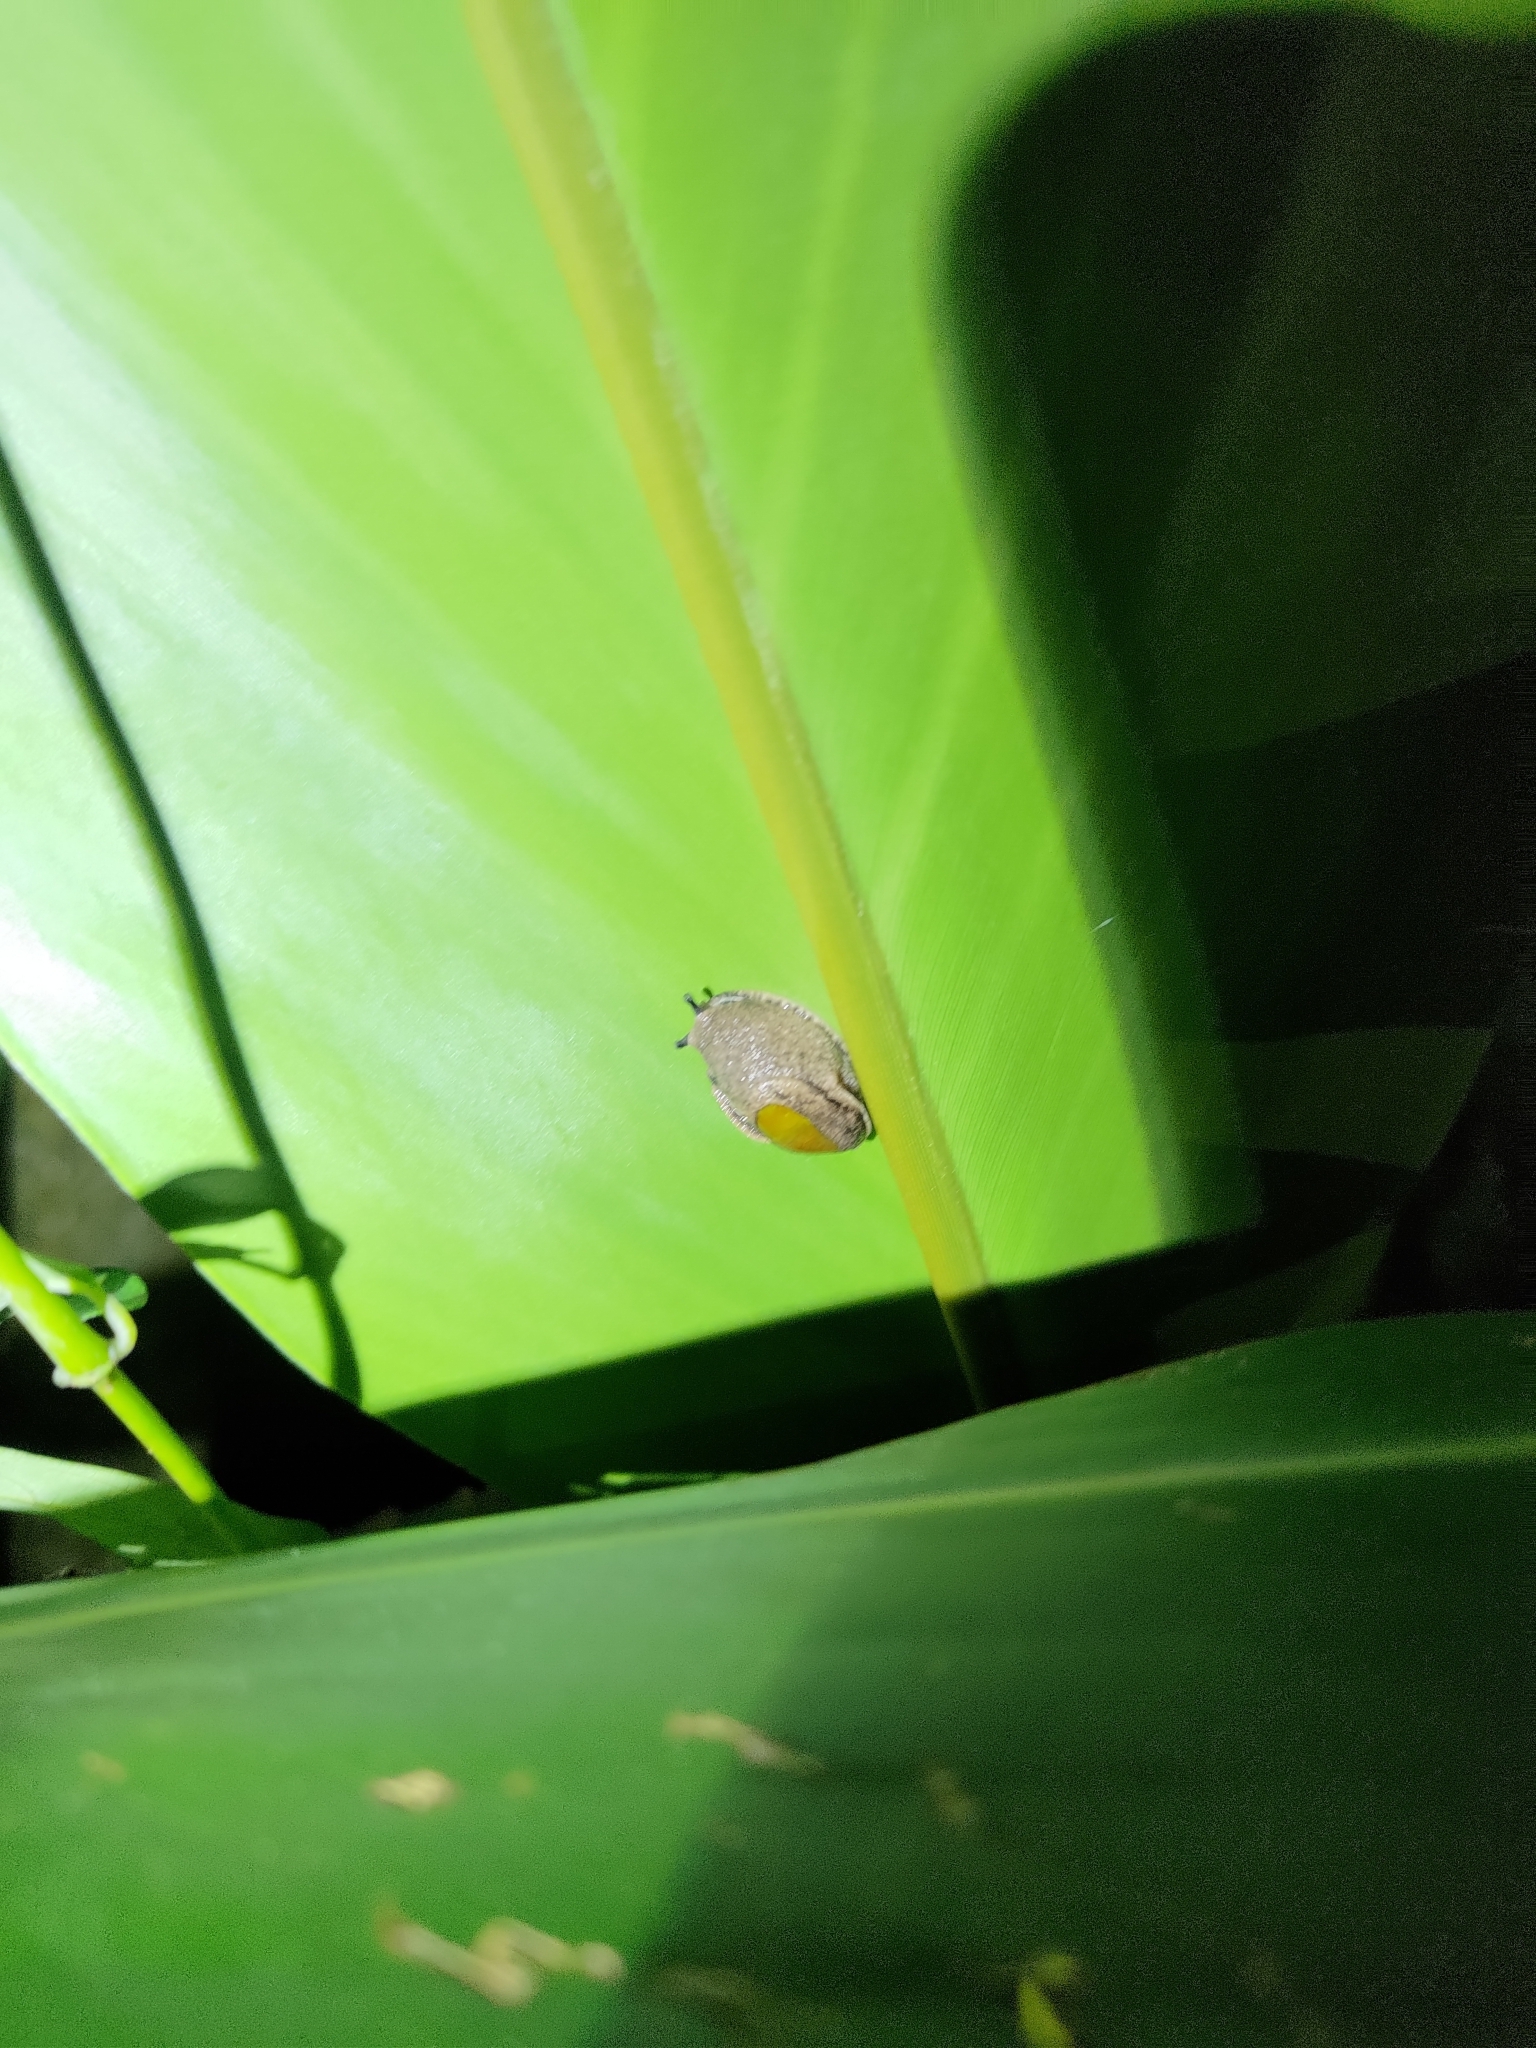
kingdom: Animalia
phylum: Mollusca
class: Gastropoda
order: Stylommatophora
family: Ariophantidae
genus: Parmarion
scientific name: Parmarion martensi
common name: Semi-slug
